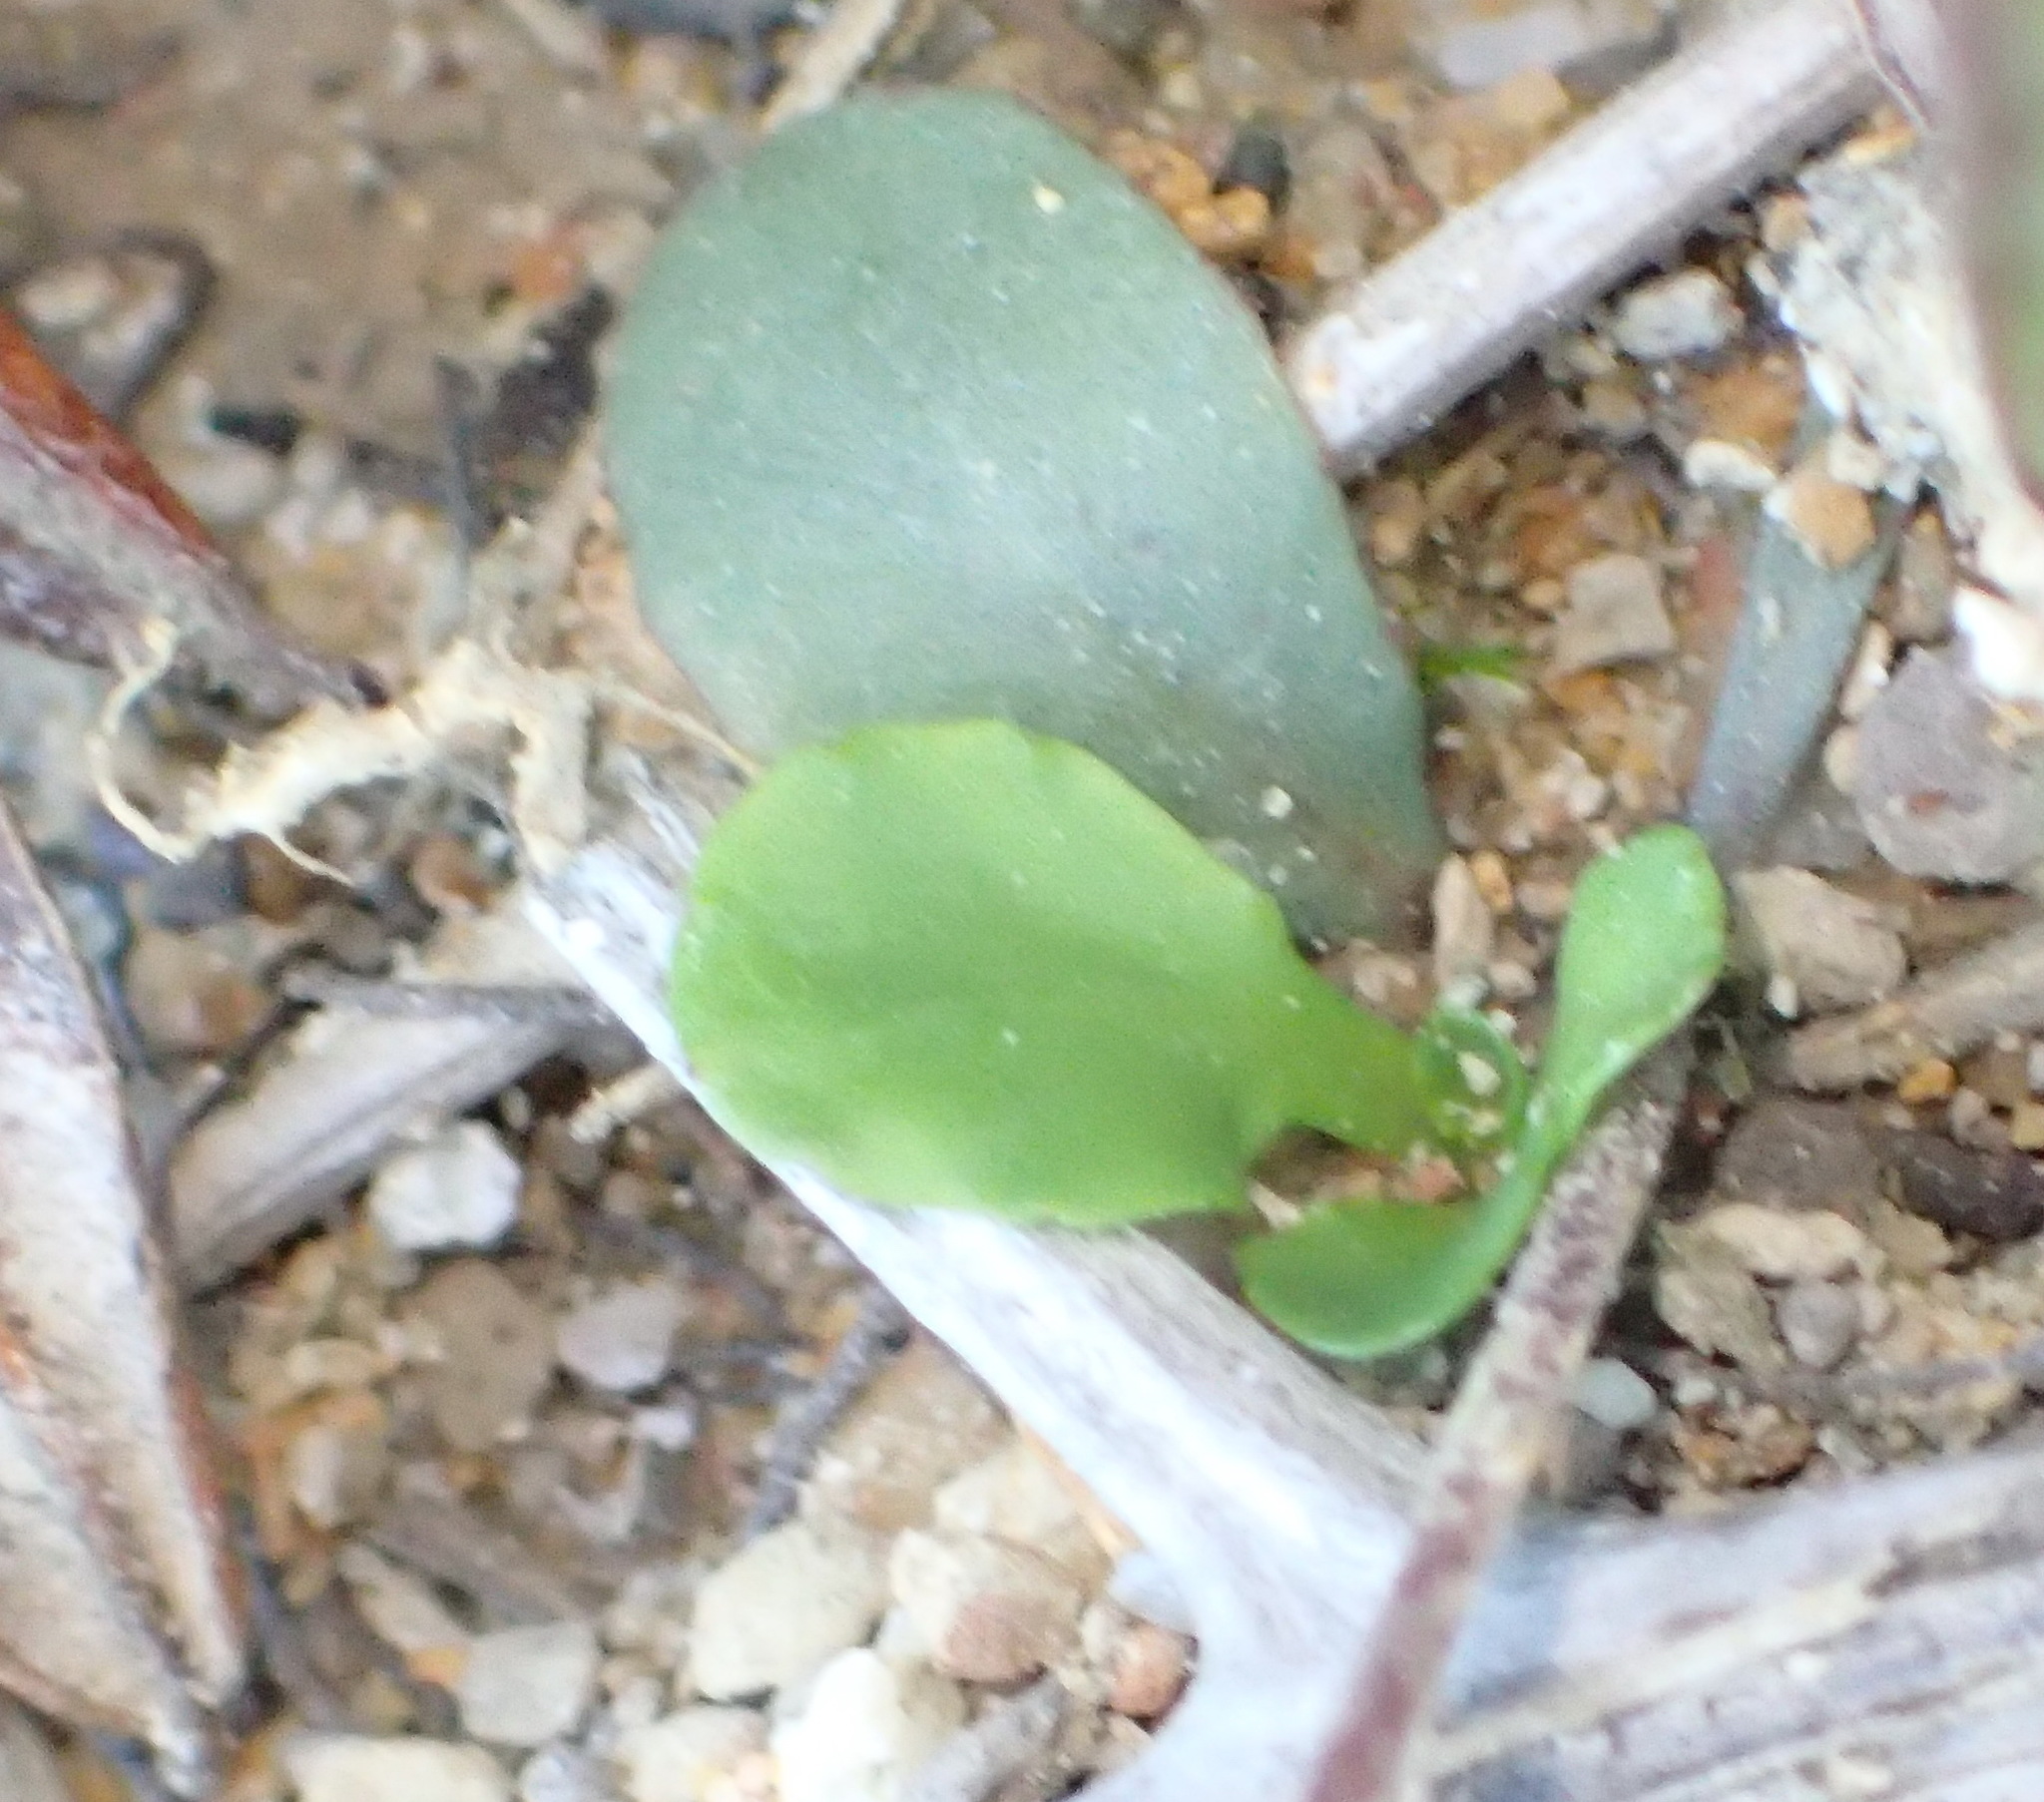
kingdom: Plantae
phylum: Tracheophyta
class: Magnoliopsida
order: Asterales
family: Campanulaceae
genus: Wimmerella
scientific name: Wimmerella arabidea
